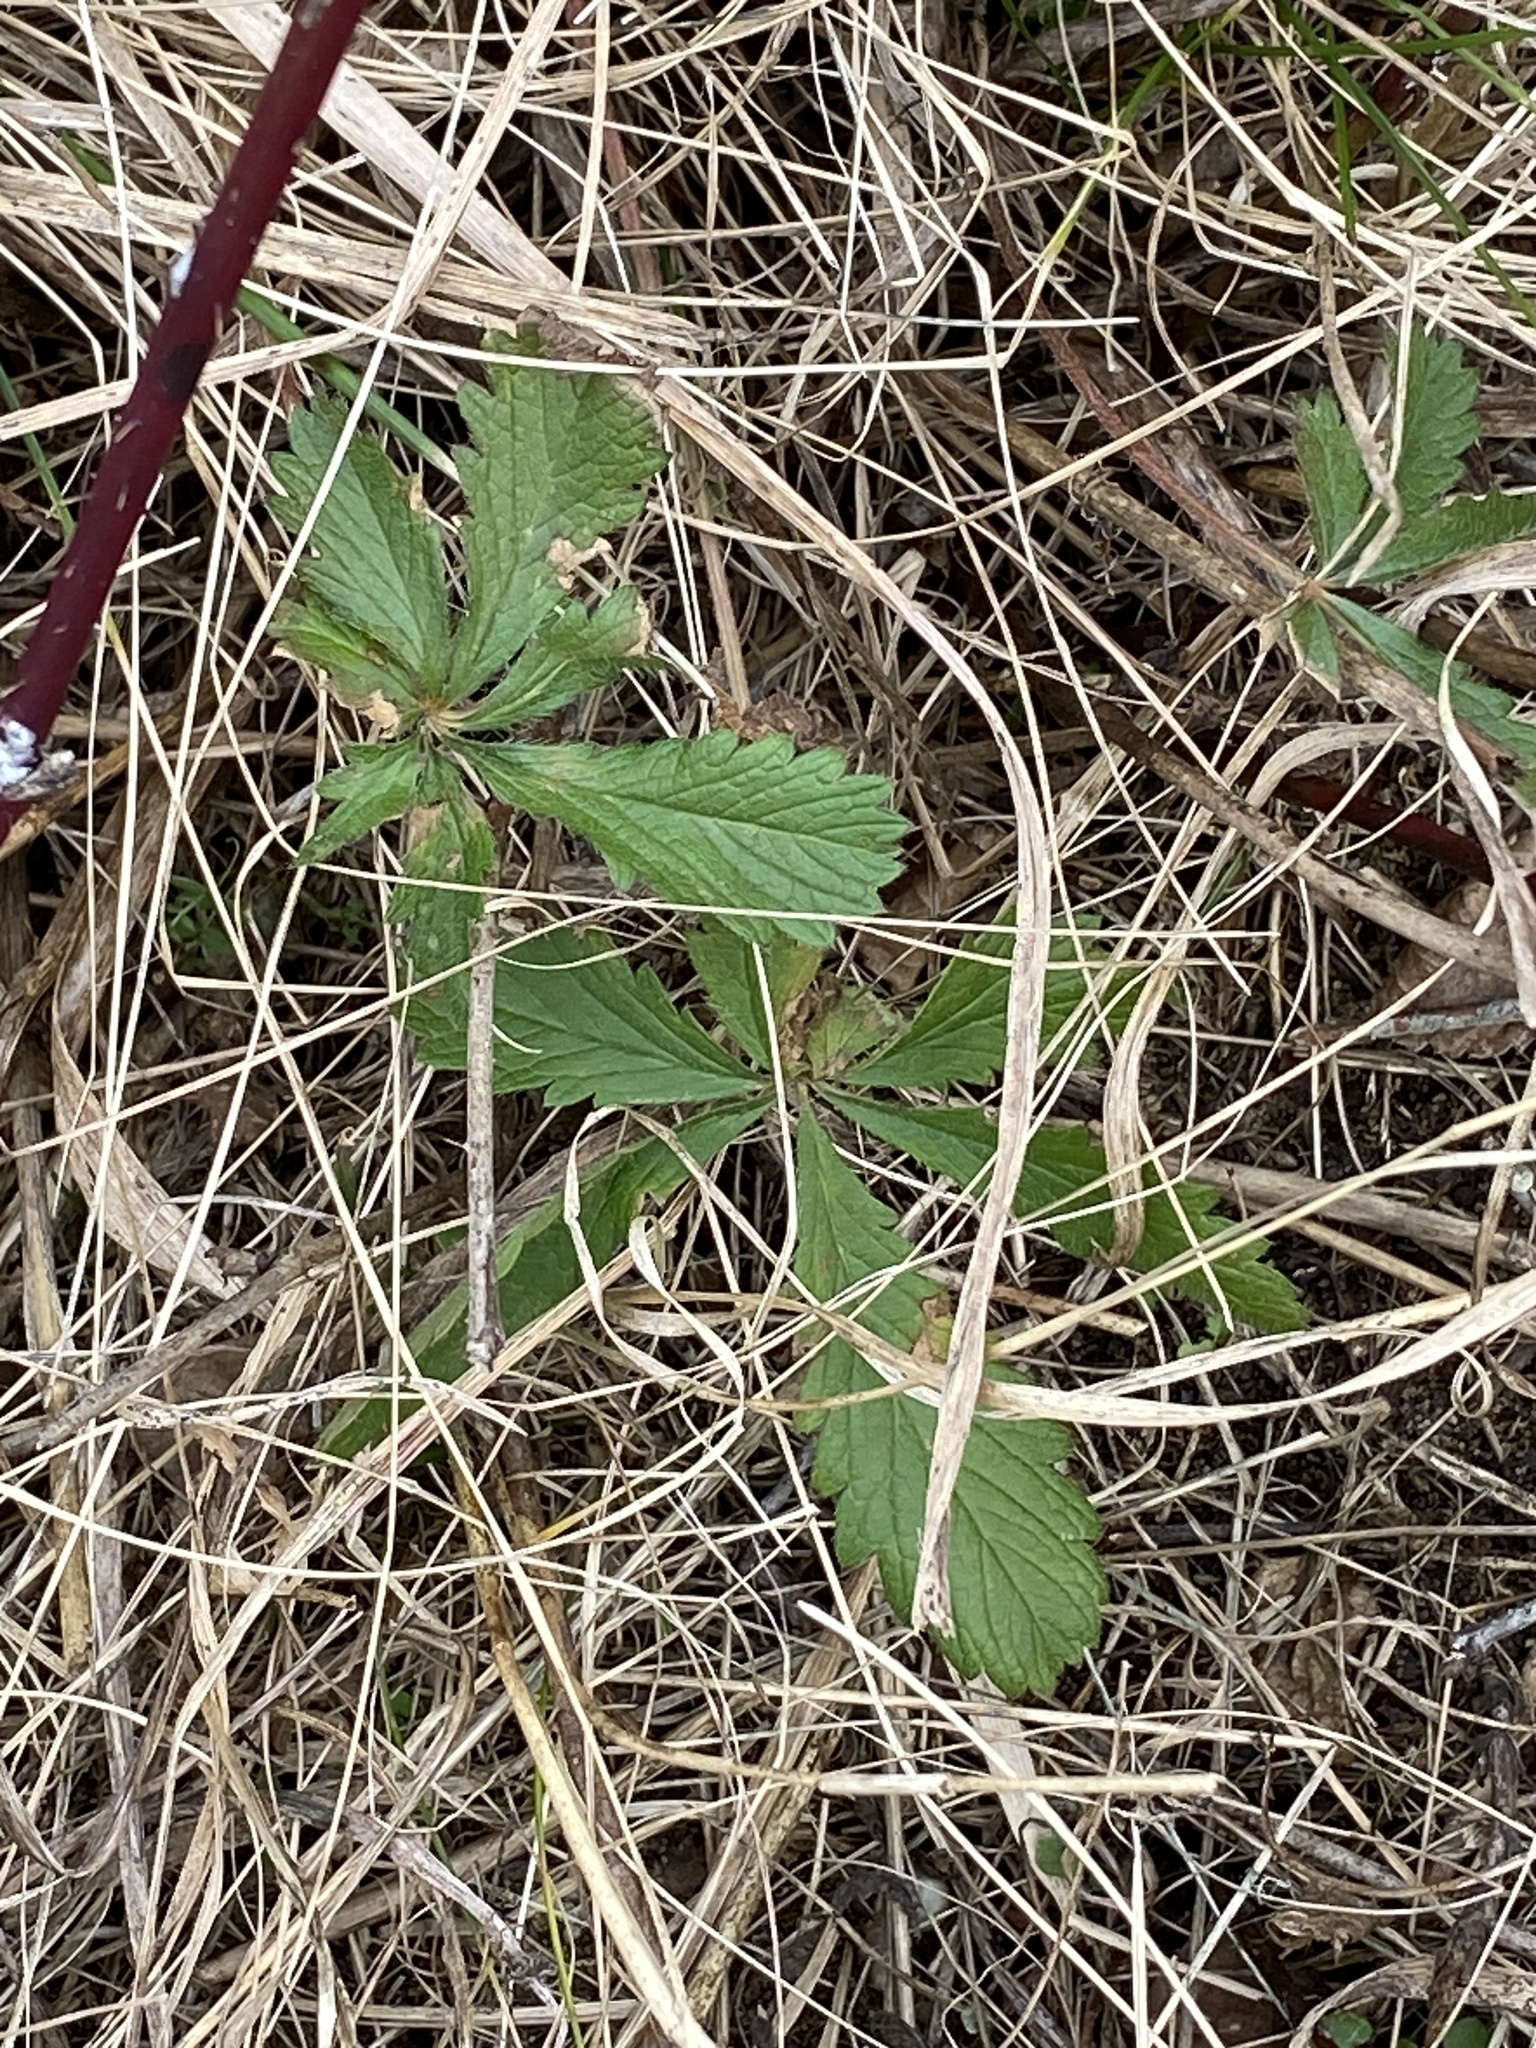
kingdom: Plantae
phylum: Tracheophyta
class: Magnoliopsida
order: Rosales
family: Rosaceae
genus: Potentilla
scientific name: Potentilla recta
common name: Sulphur cinquefoil
